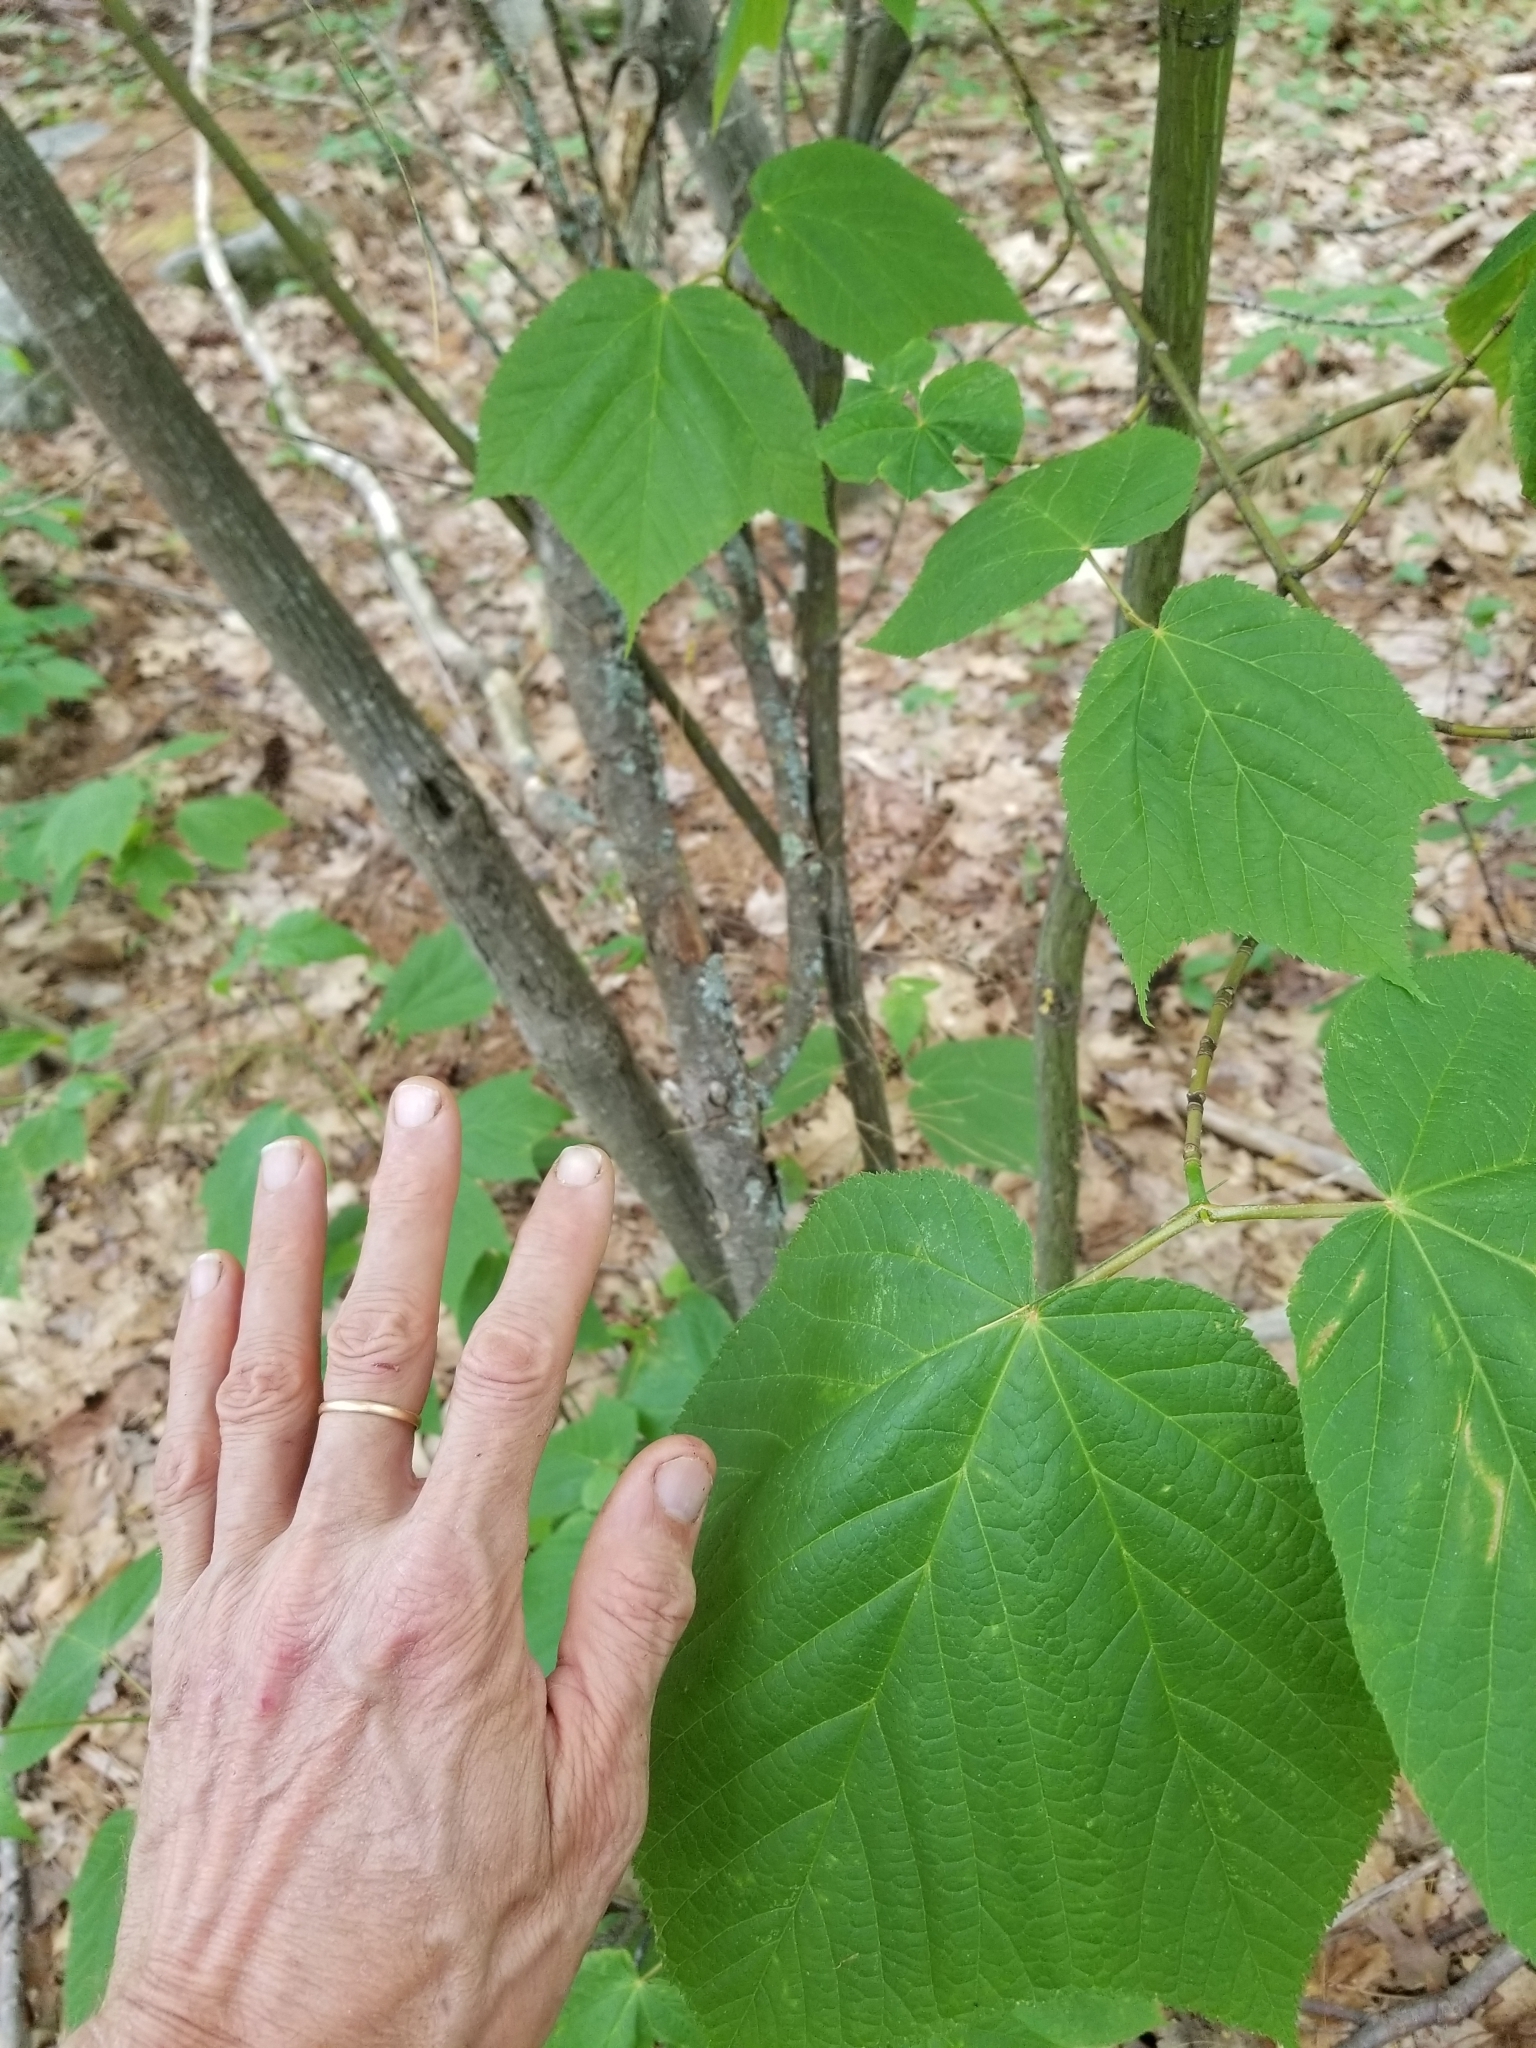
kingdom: Plantae
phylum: Tracheophyta
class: Magnoliopsida
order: Sapindales
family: Sapindaceae
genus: Acer
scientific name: Acer pensylvanicum
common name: Moosewood
